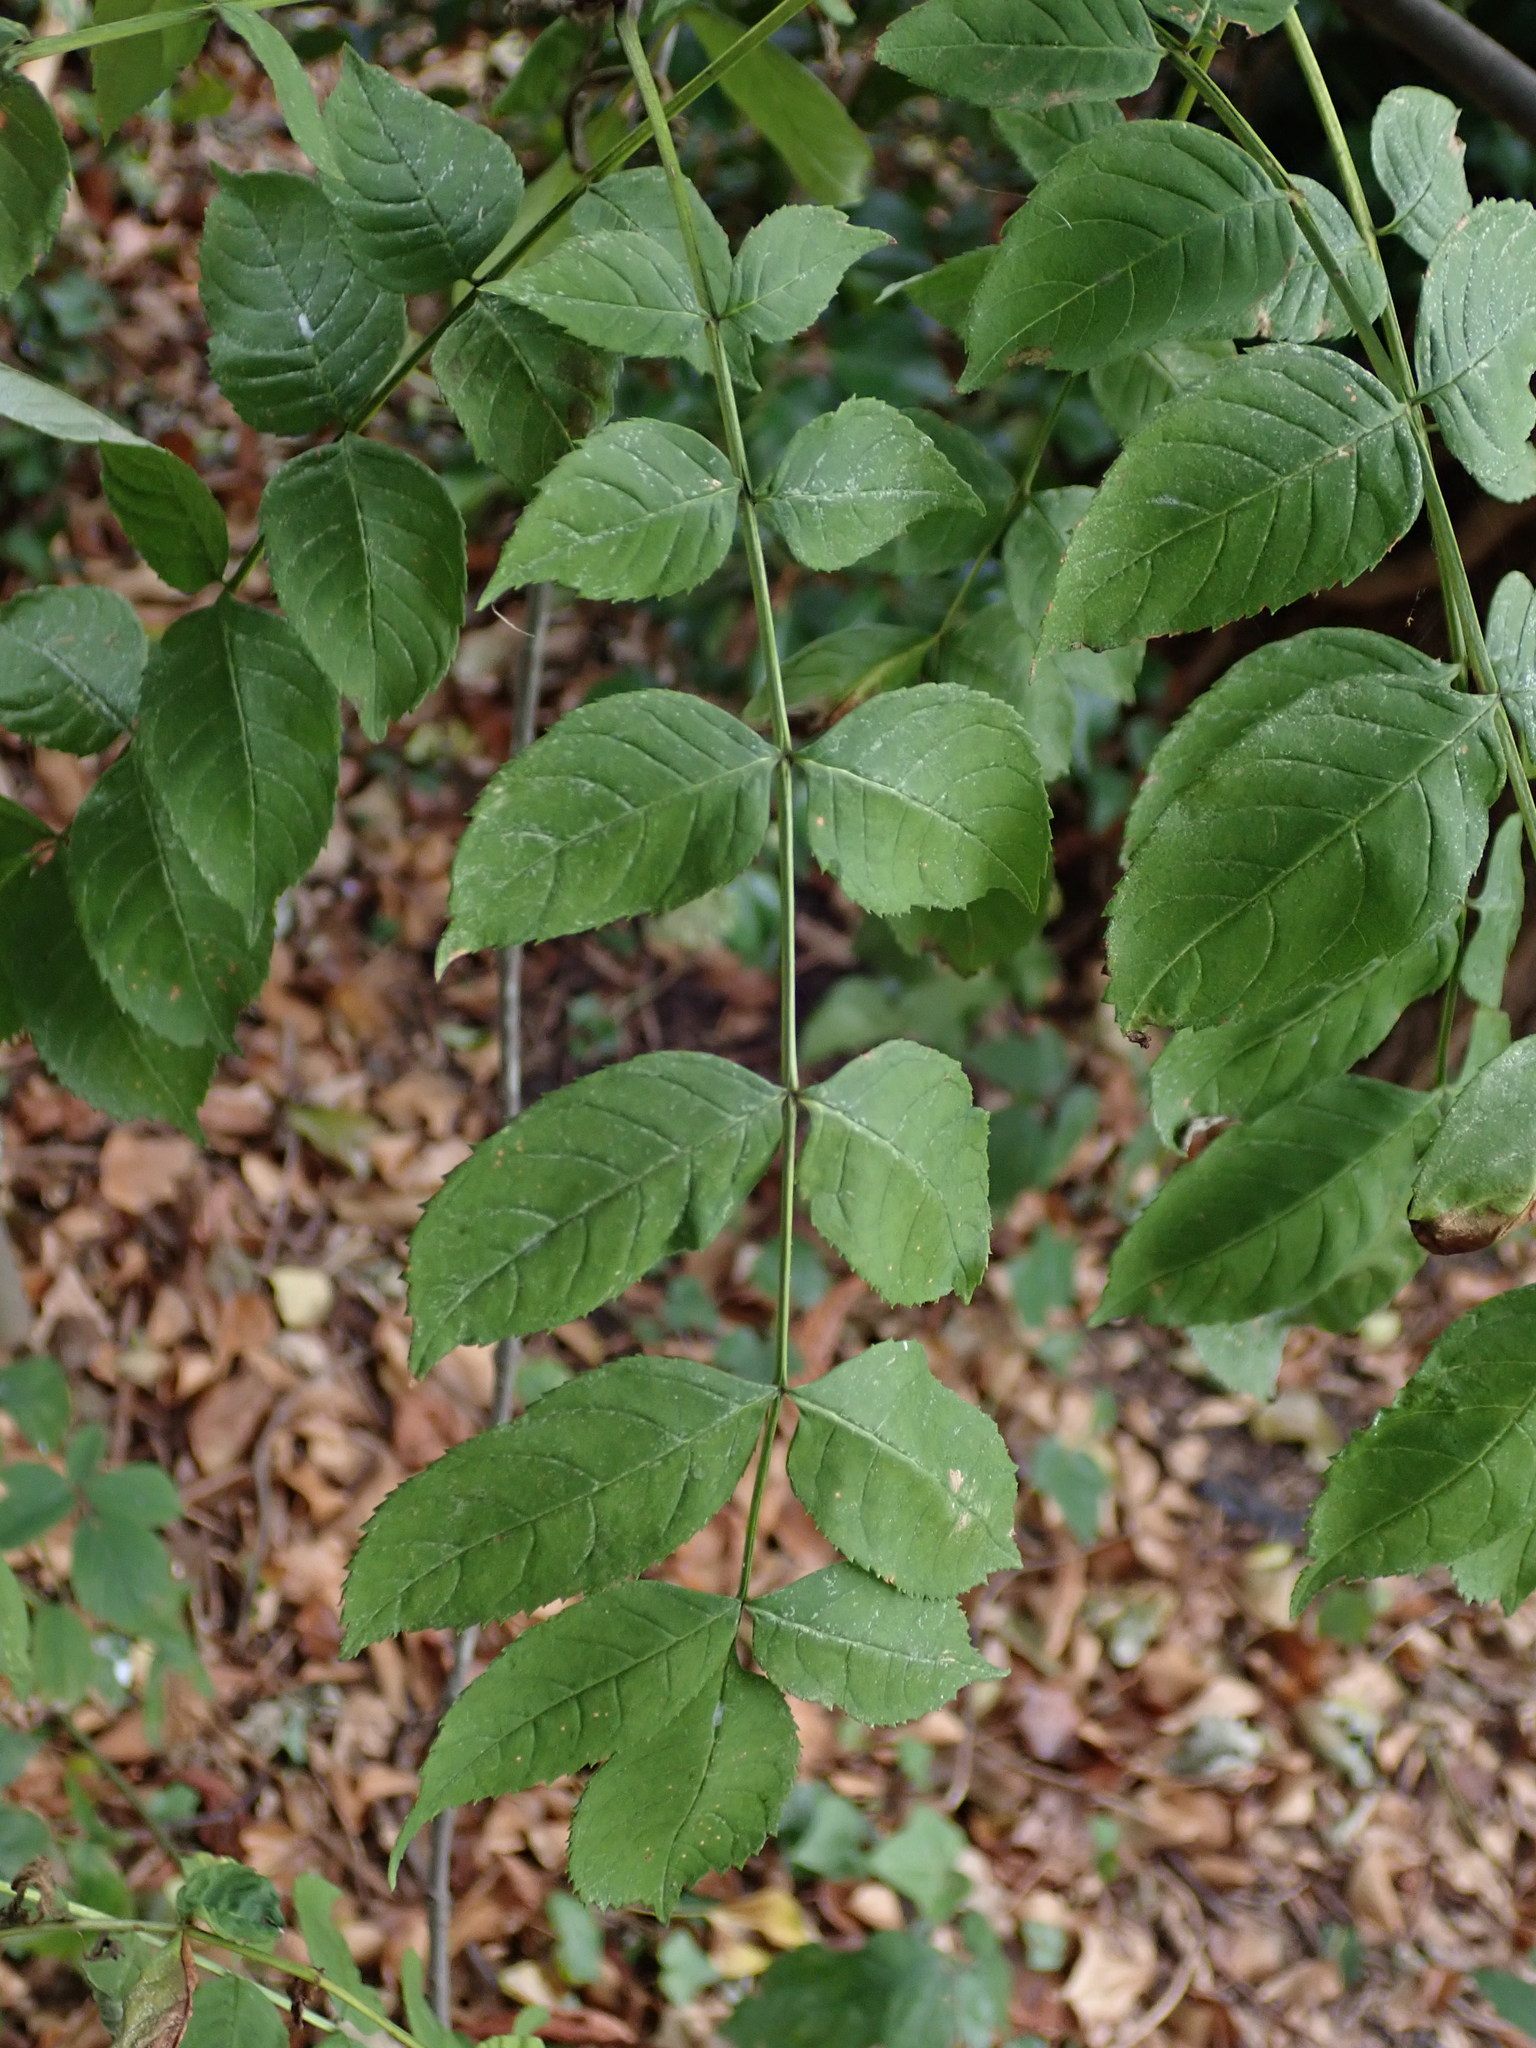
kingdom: Plantae
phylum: Tracheophyta
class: Magnoliopsida
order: Lamiales
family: Oleaceae
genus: Fraxinus
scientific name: Fraxinus excelsior
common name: European ash
